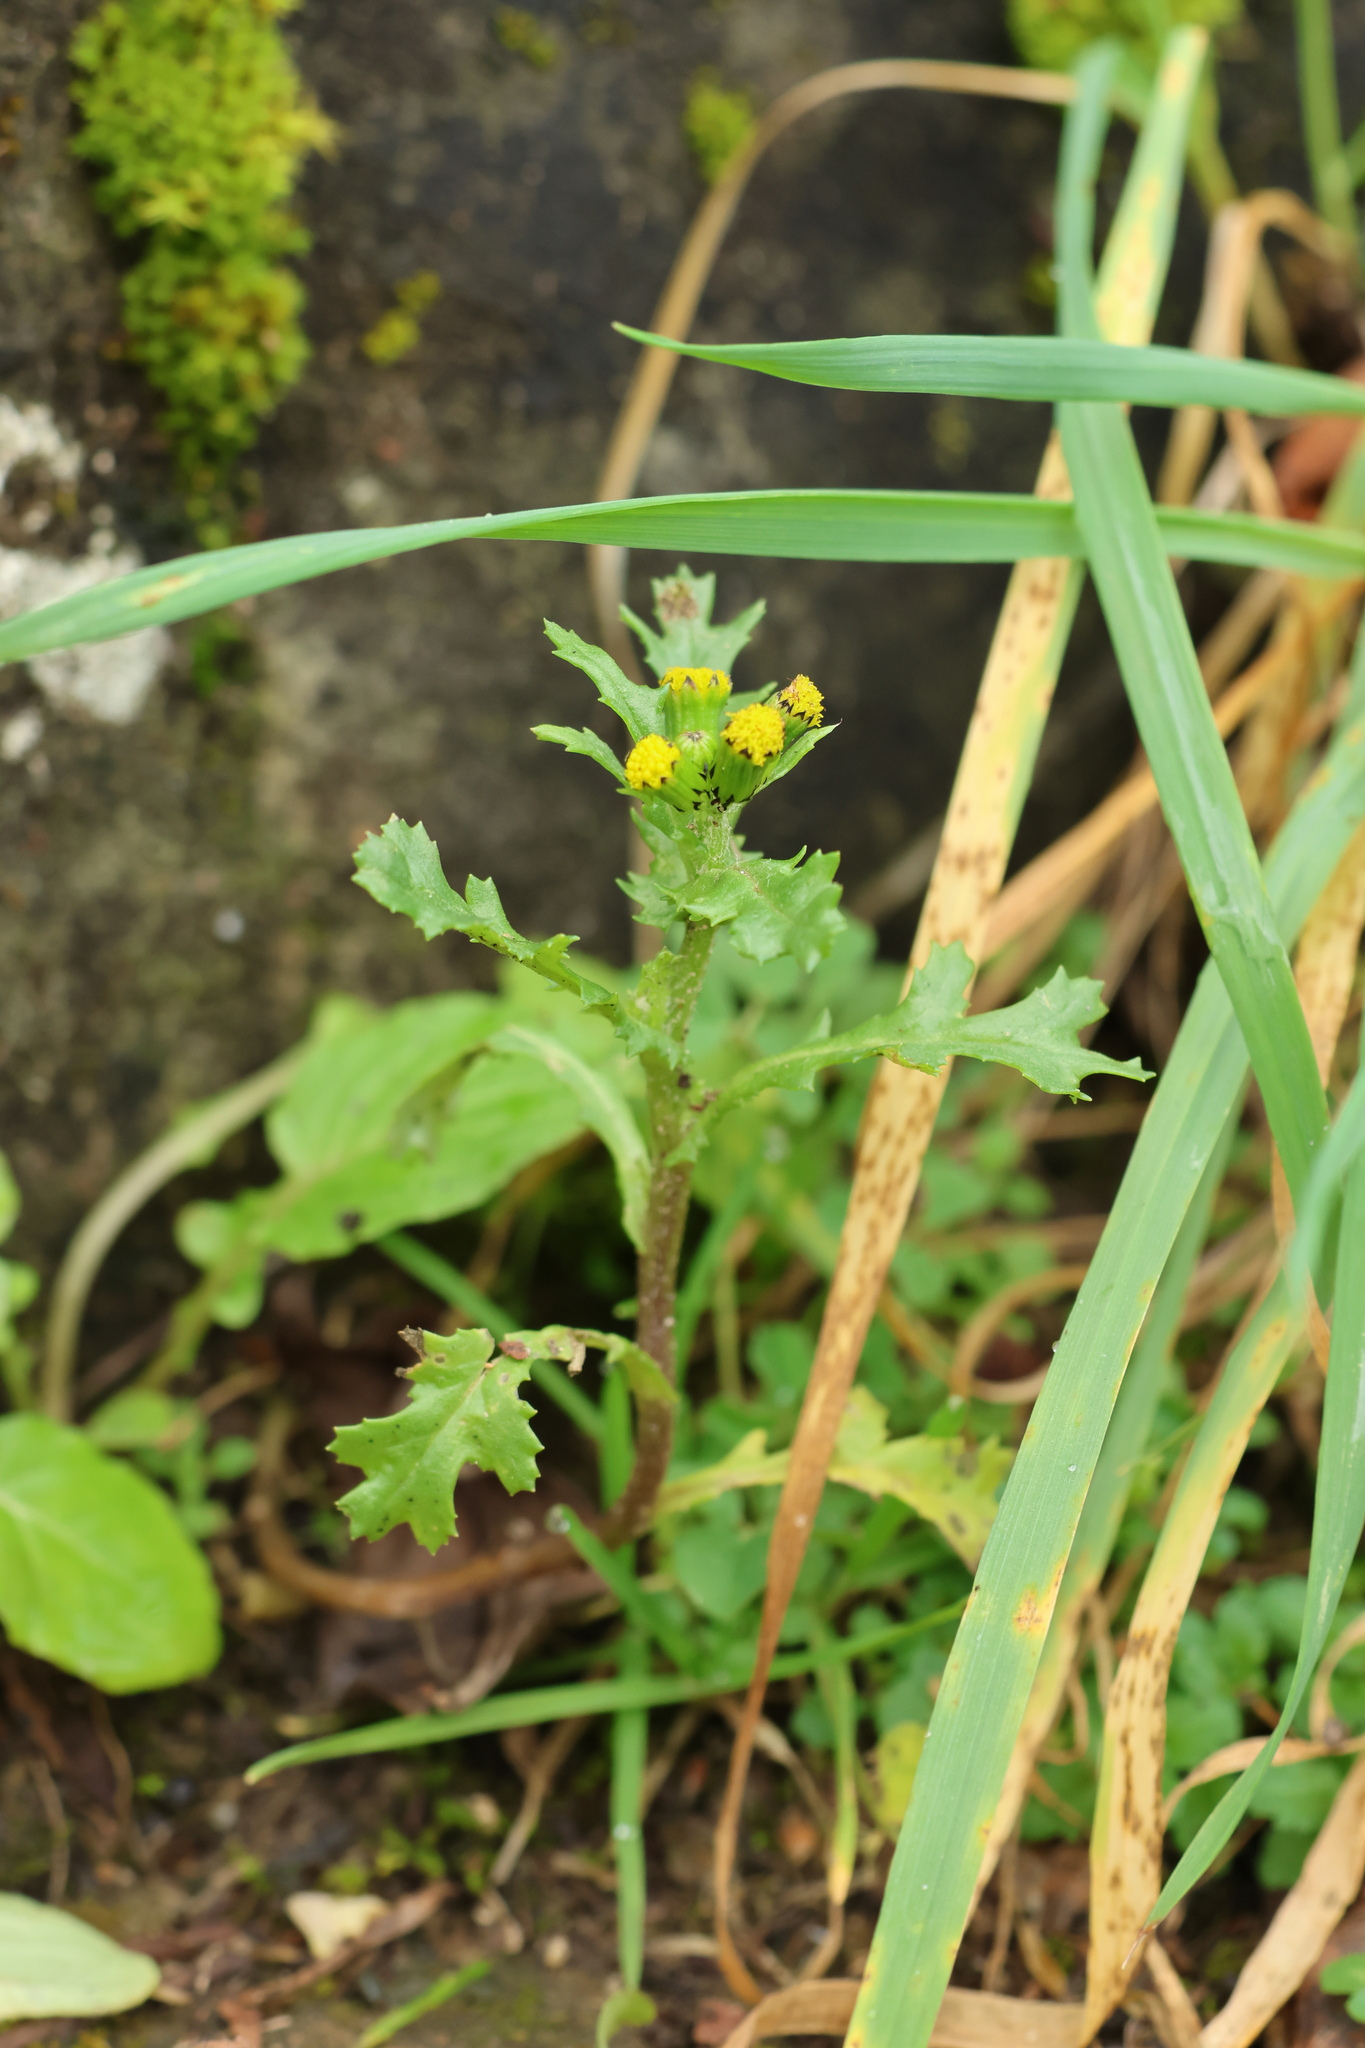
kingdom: Plantae
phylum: Tracheophyta
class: Magnoliopsida
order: Asterales
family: Asteraceae
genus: Senecio
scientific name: Senecio vulgaris
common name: Old-man-in-the-spring
